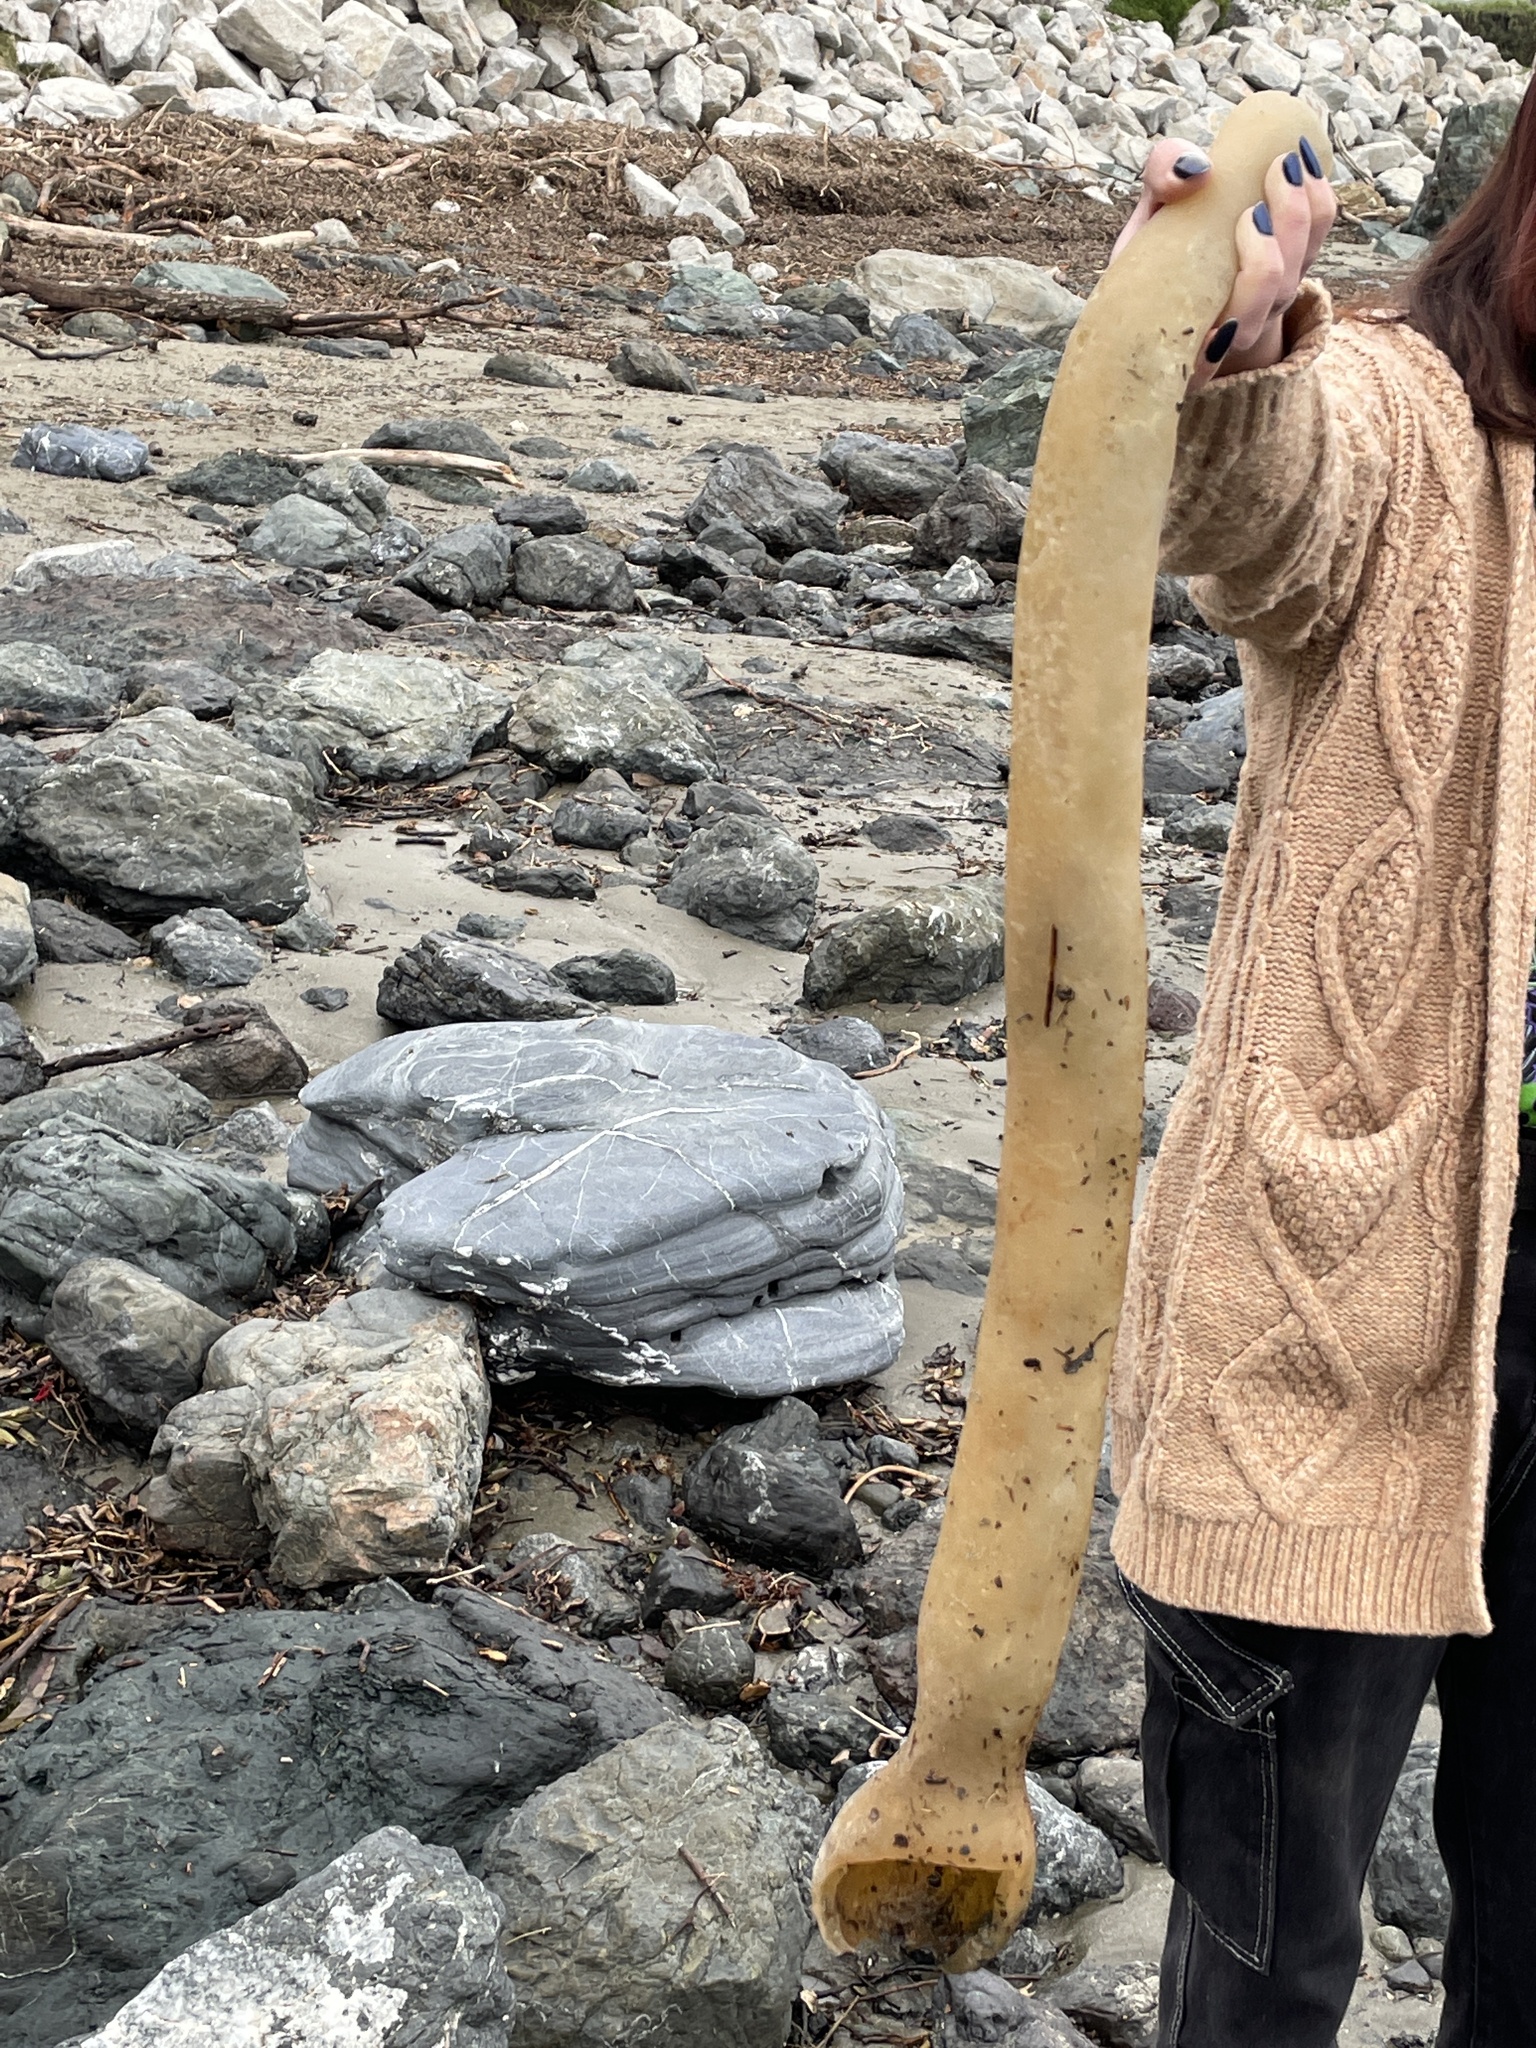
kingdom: Chromista
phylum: Ochrophyta
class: Phaeophyceae
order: Laminariales
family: Laminariaceae
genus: Nereocystis
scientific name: Nereocystis luetkeana
